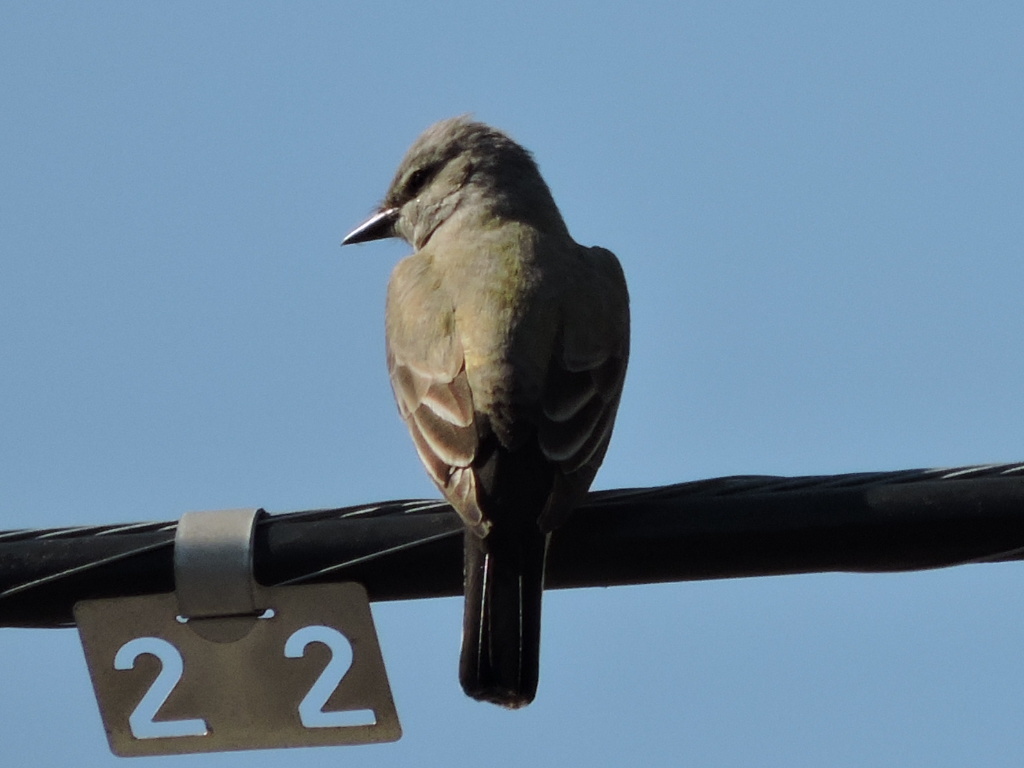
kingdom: Animalia
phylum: Chordata
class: Aves
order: Passeriformes
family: Tyrannidae
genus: Tyrannus
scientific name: Tyrannus verticalis
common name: Western kingbird
